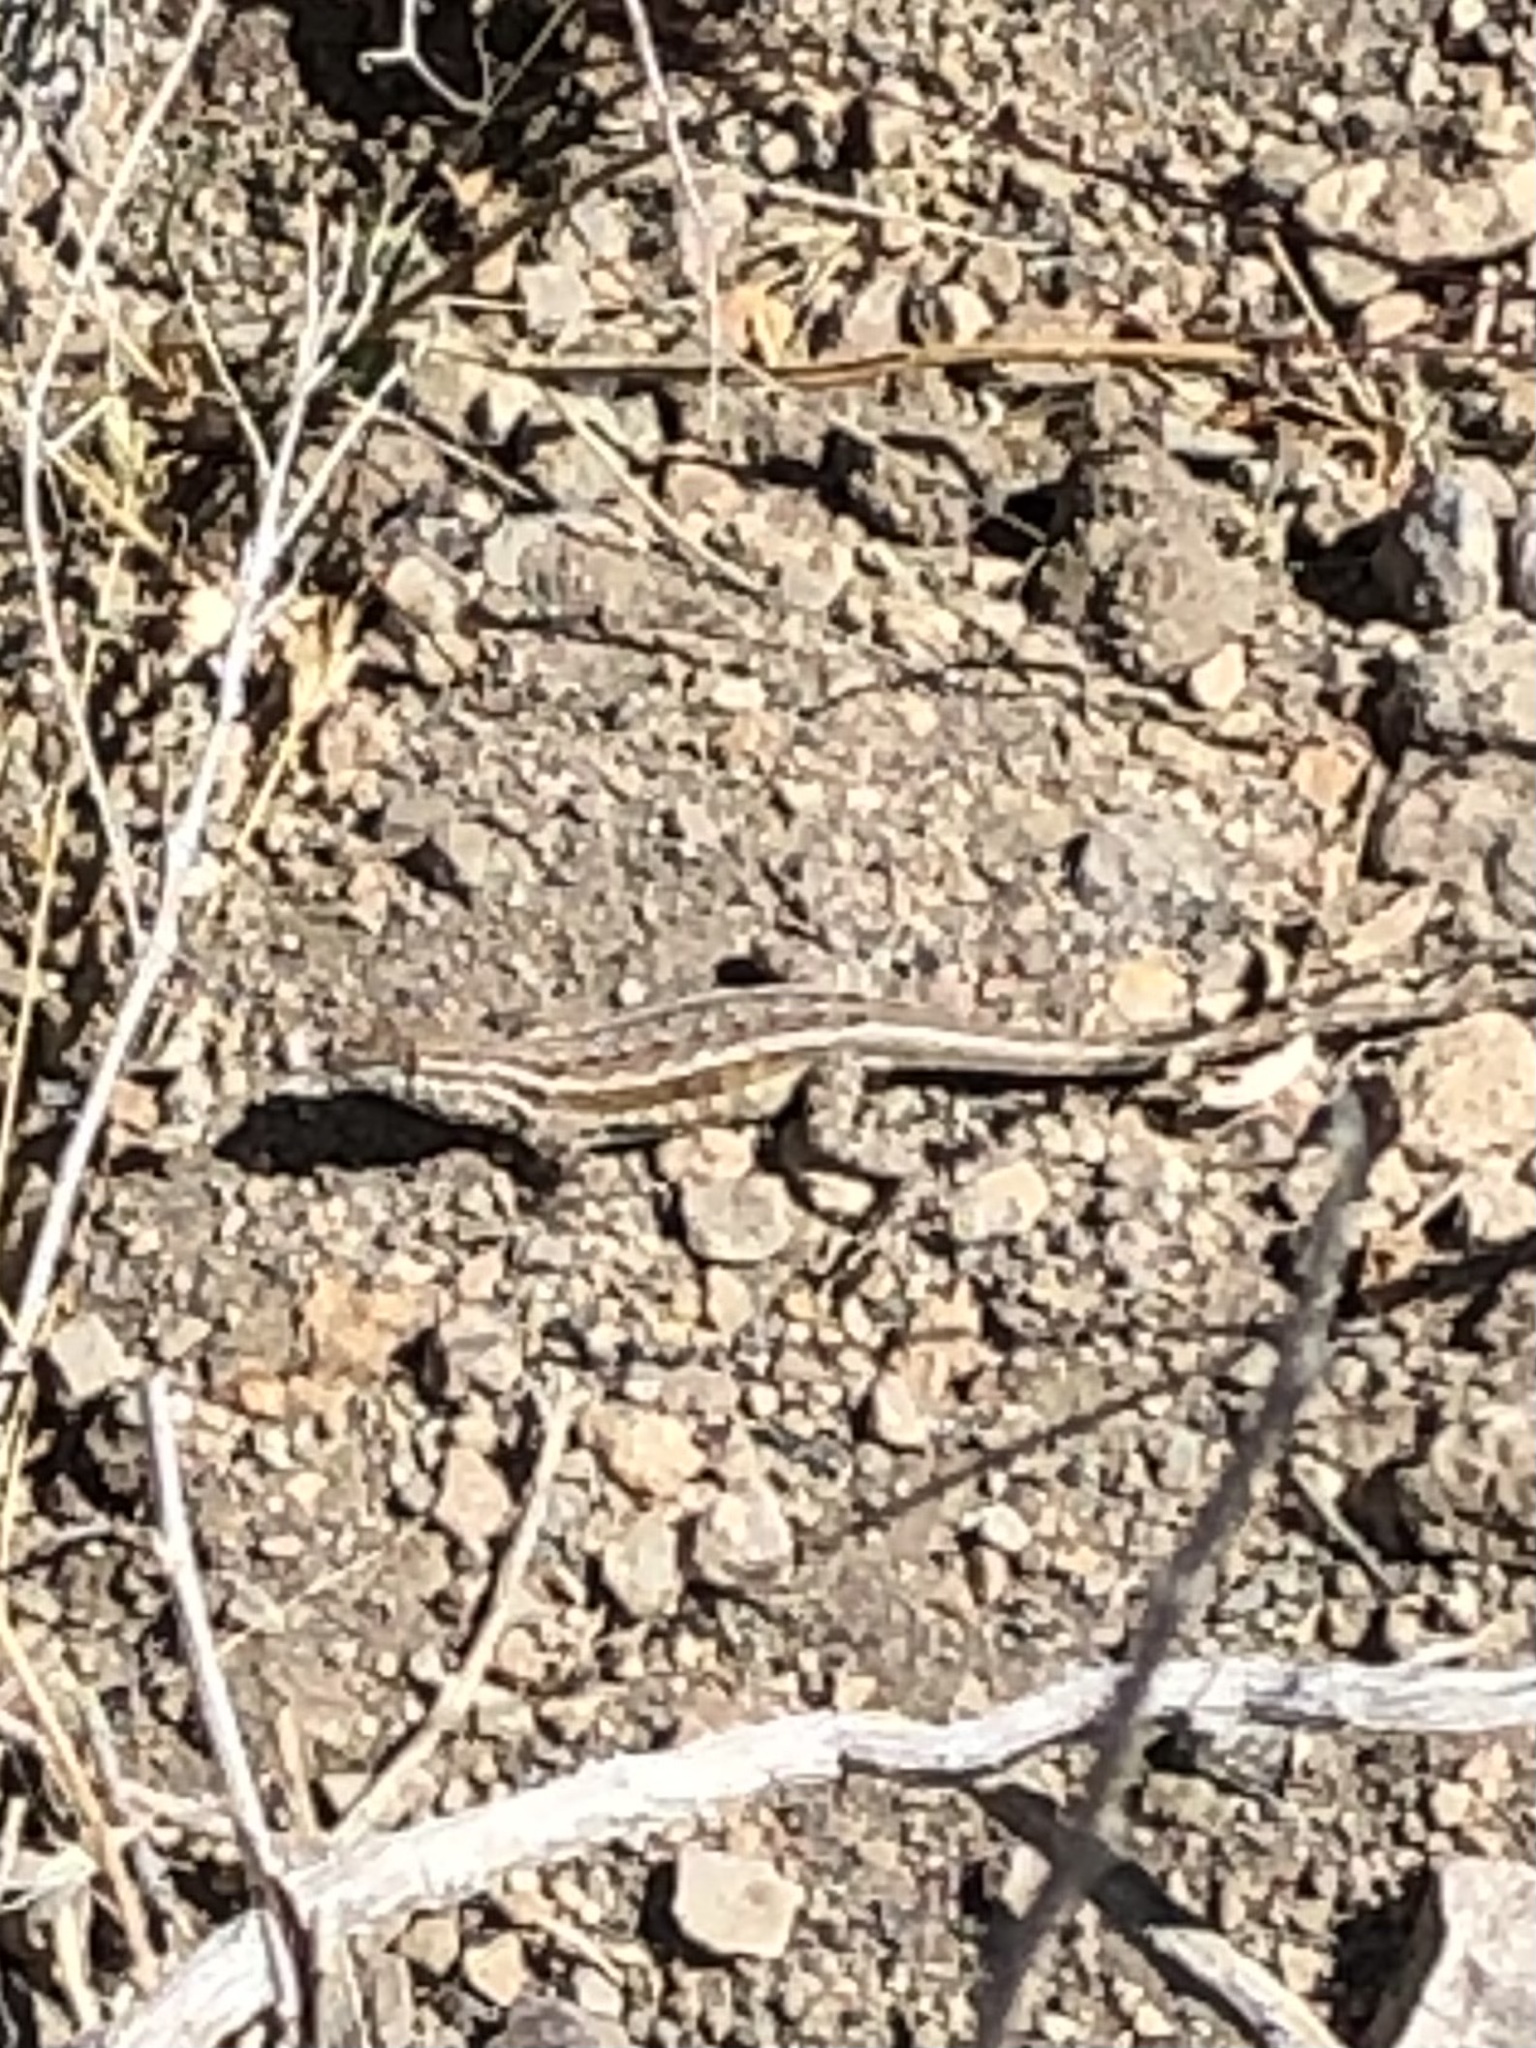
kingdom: Animalia
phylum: Chordata
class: Squamata
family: Phrynosomatidae
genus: Uta
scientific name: Uta stansburiana
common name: Side-blotched lizard
